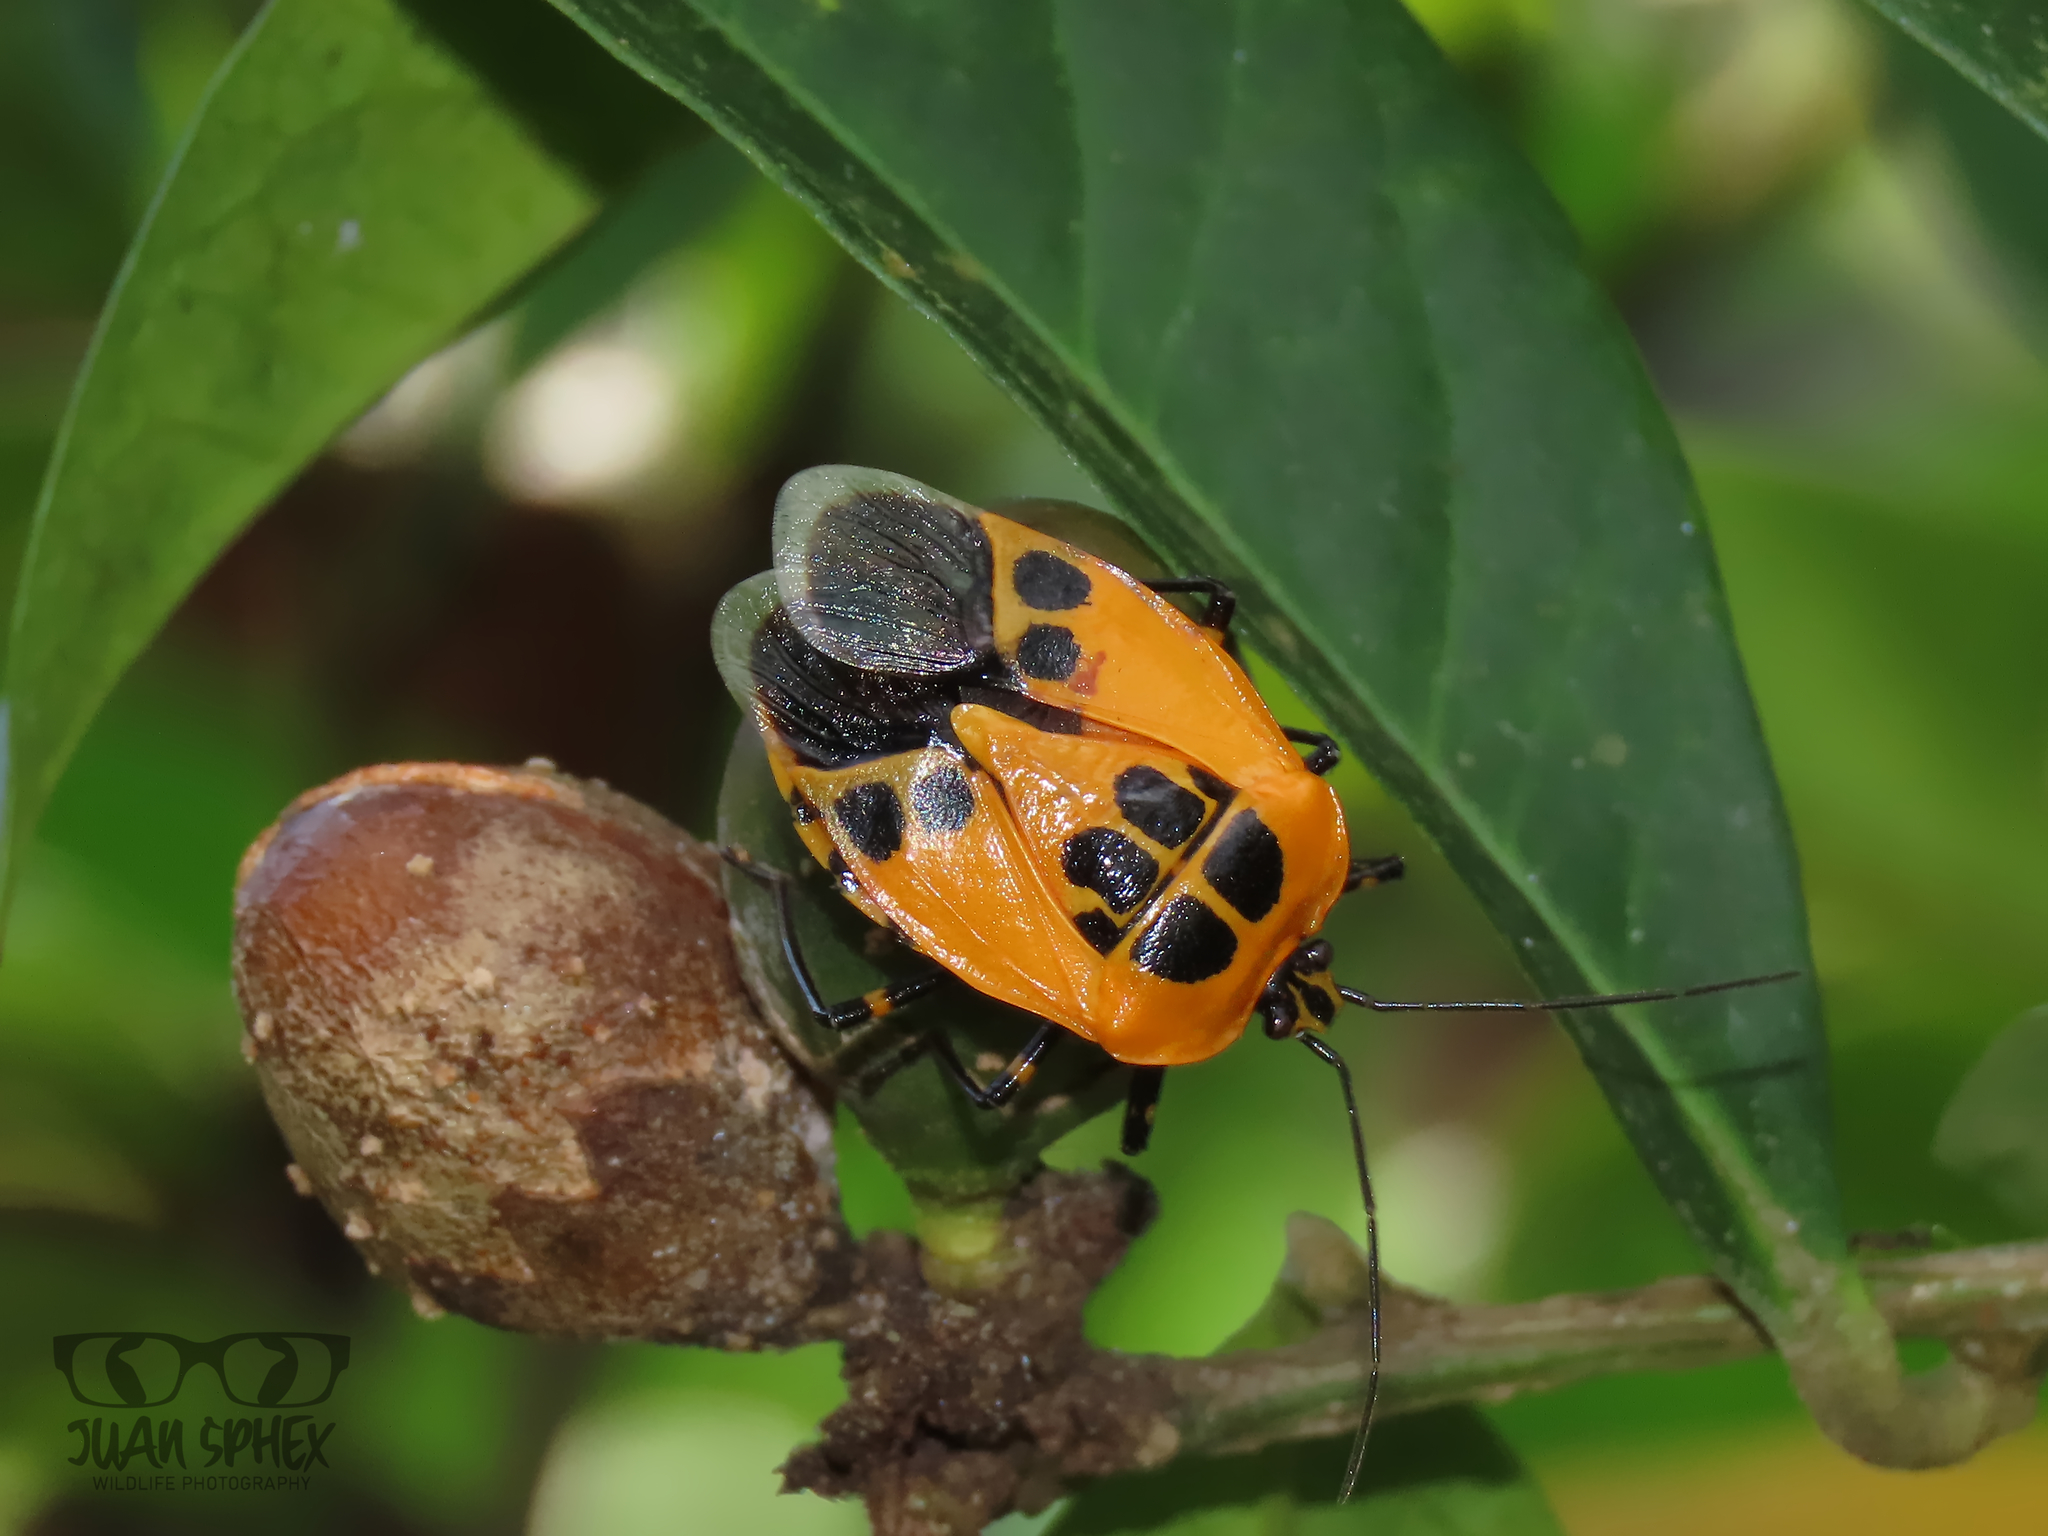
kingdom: Animalia
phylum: Arthropoda
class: Insecta
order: Hemiptera
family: Pentatomidae
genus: Runibia
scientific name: Runibia decorata
